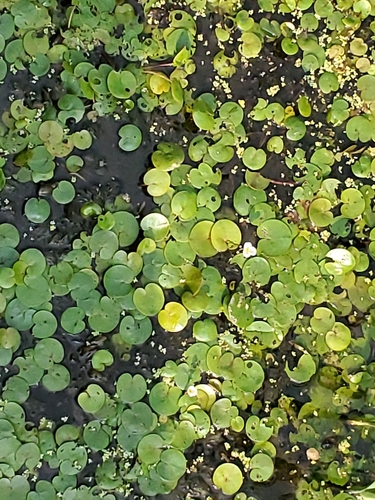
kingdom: Plantae
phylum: Tracheophyta
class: Liliopsida
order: Alismatales
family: Hydrocharitaceae
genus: Hydrocharis
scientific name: Hydrocharis morsus-ranae
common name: European frog-bit
